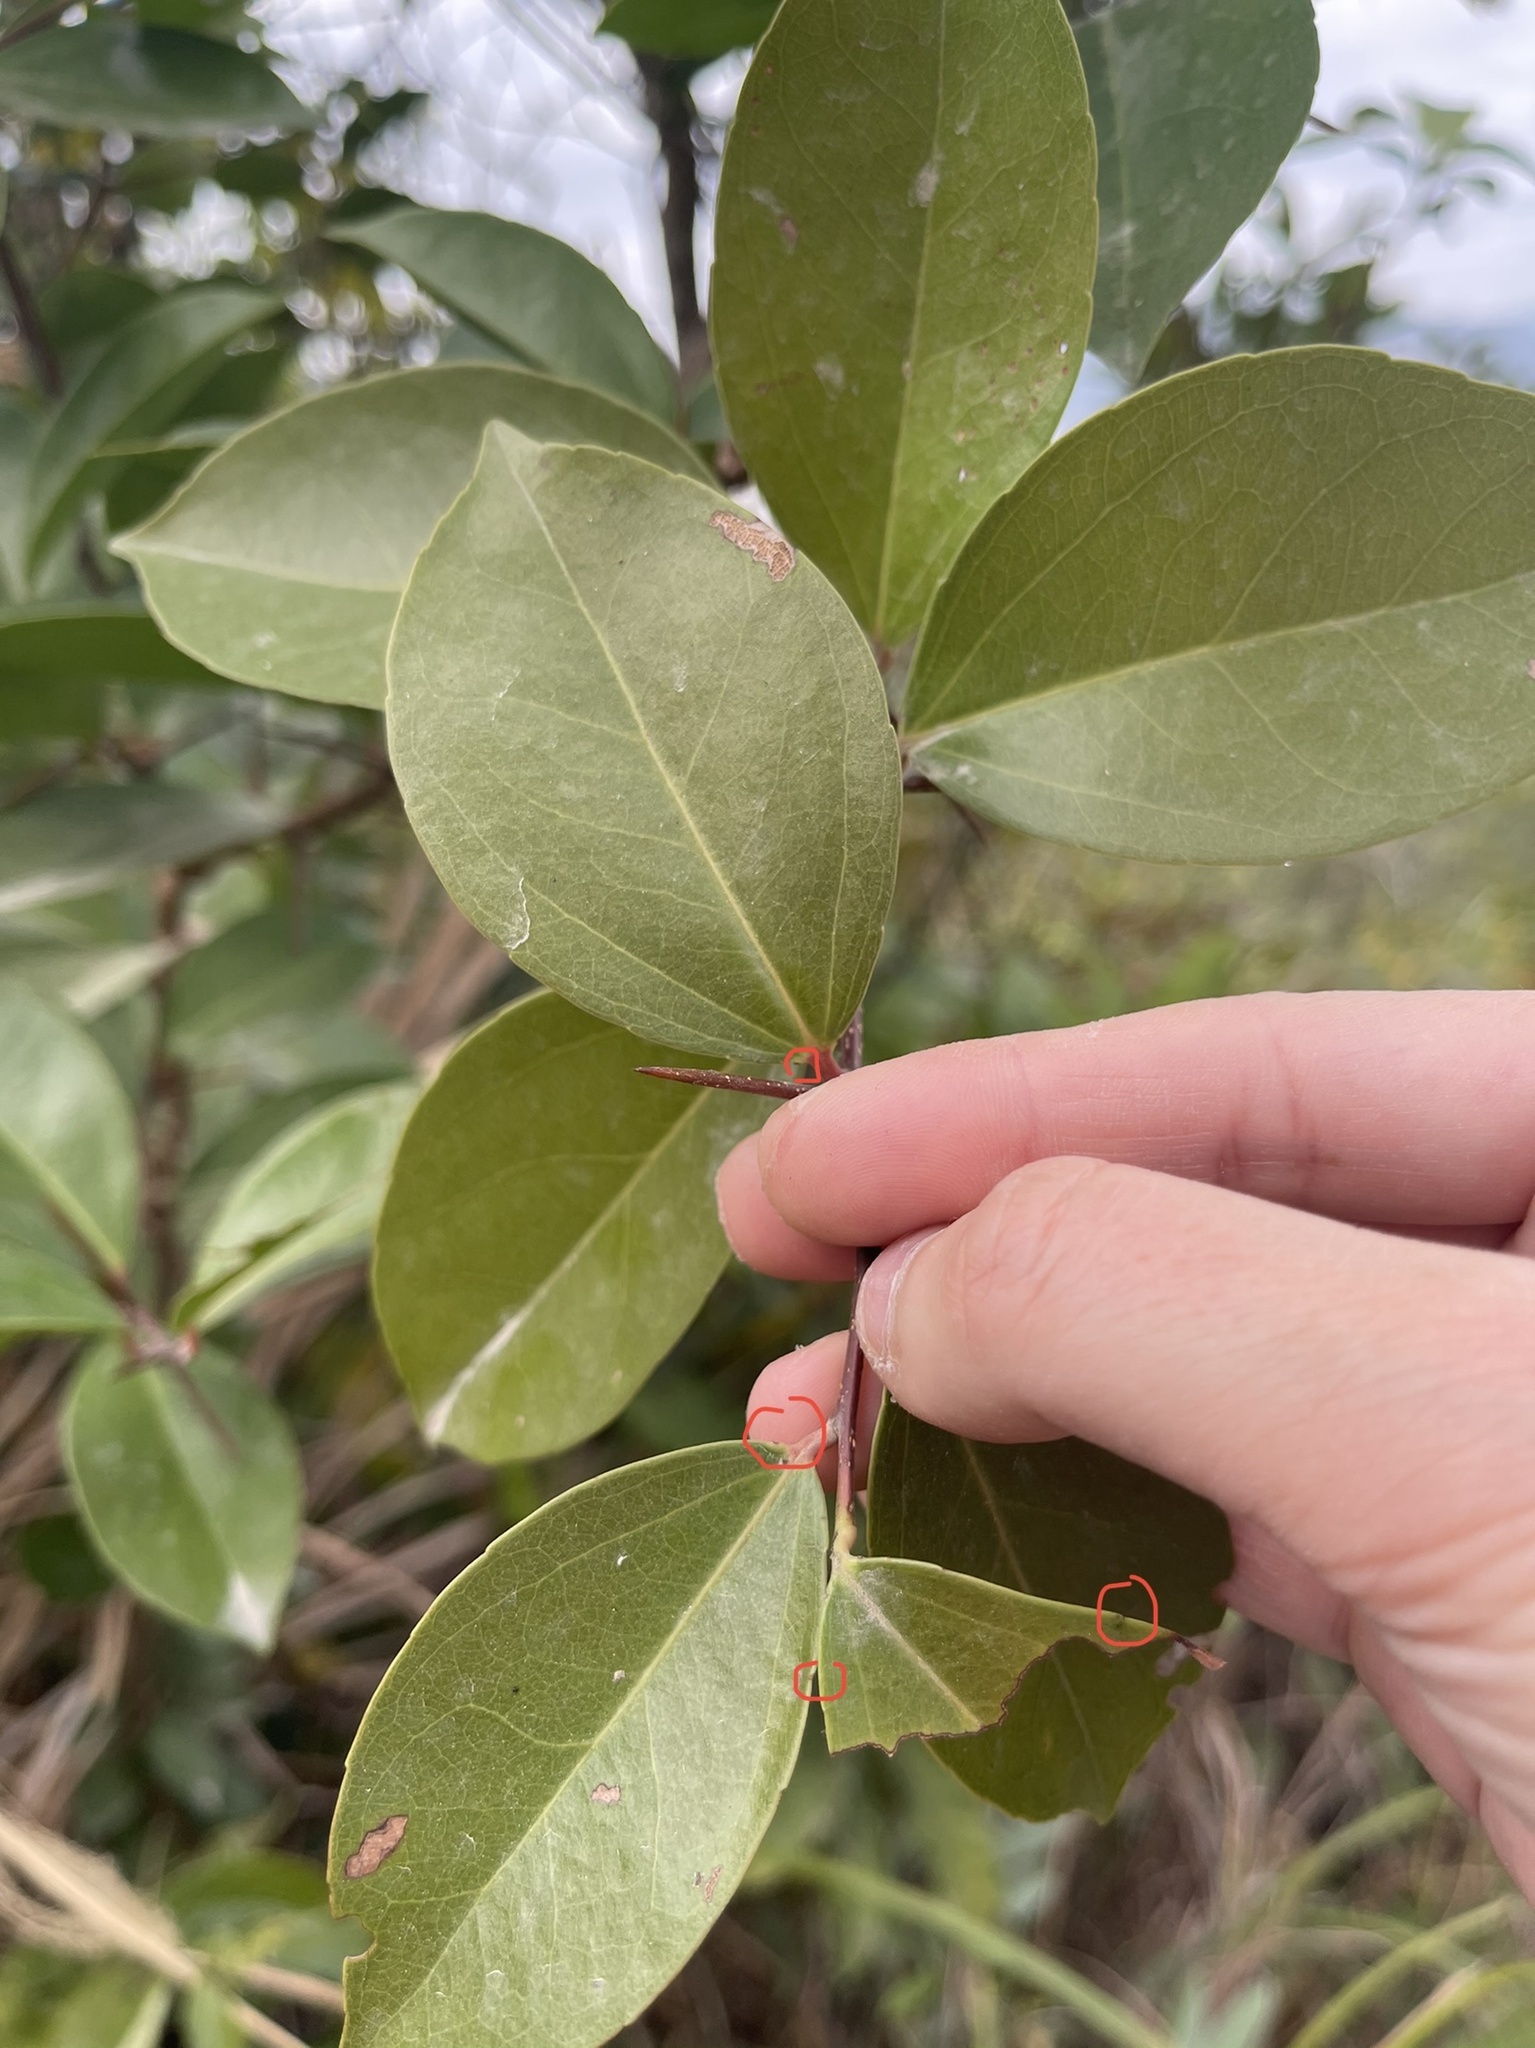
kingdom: Plantae
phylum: Tracheophyta
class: Magnoliopsida
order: Malpighiales
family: Salicaceae
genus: Scolopia
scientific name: Scolopia saeva
